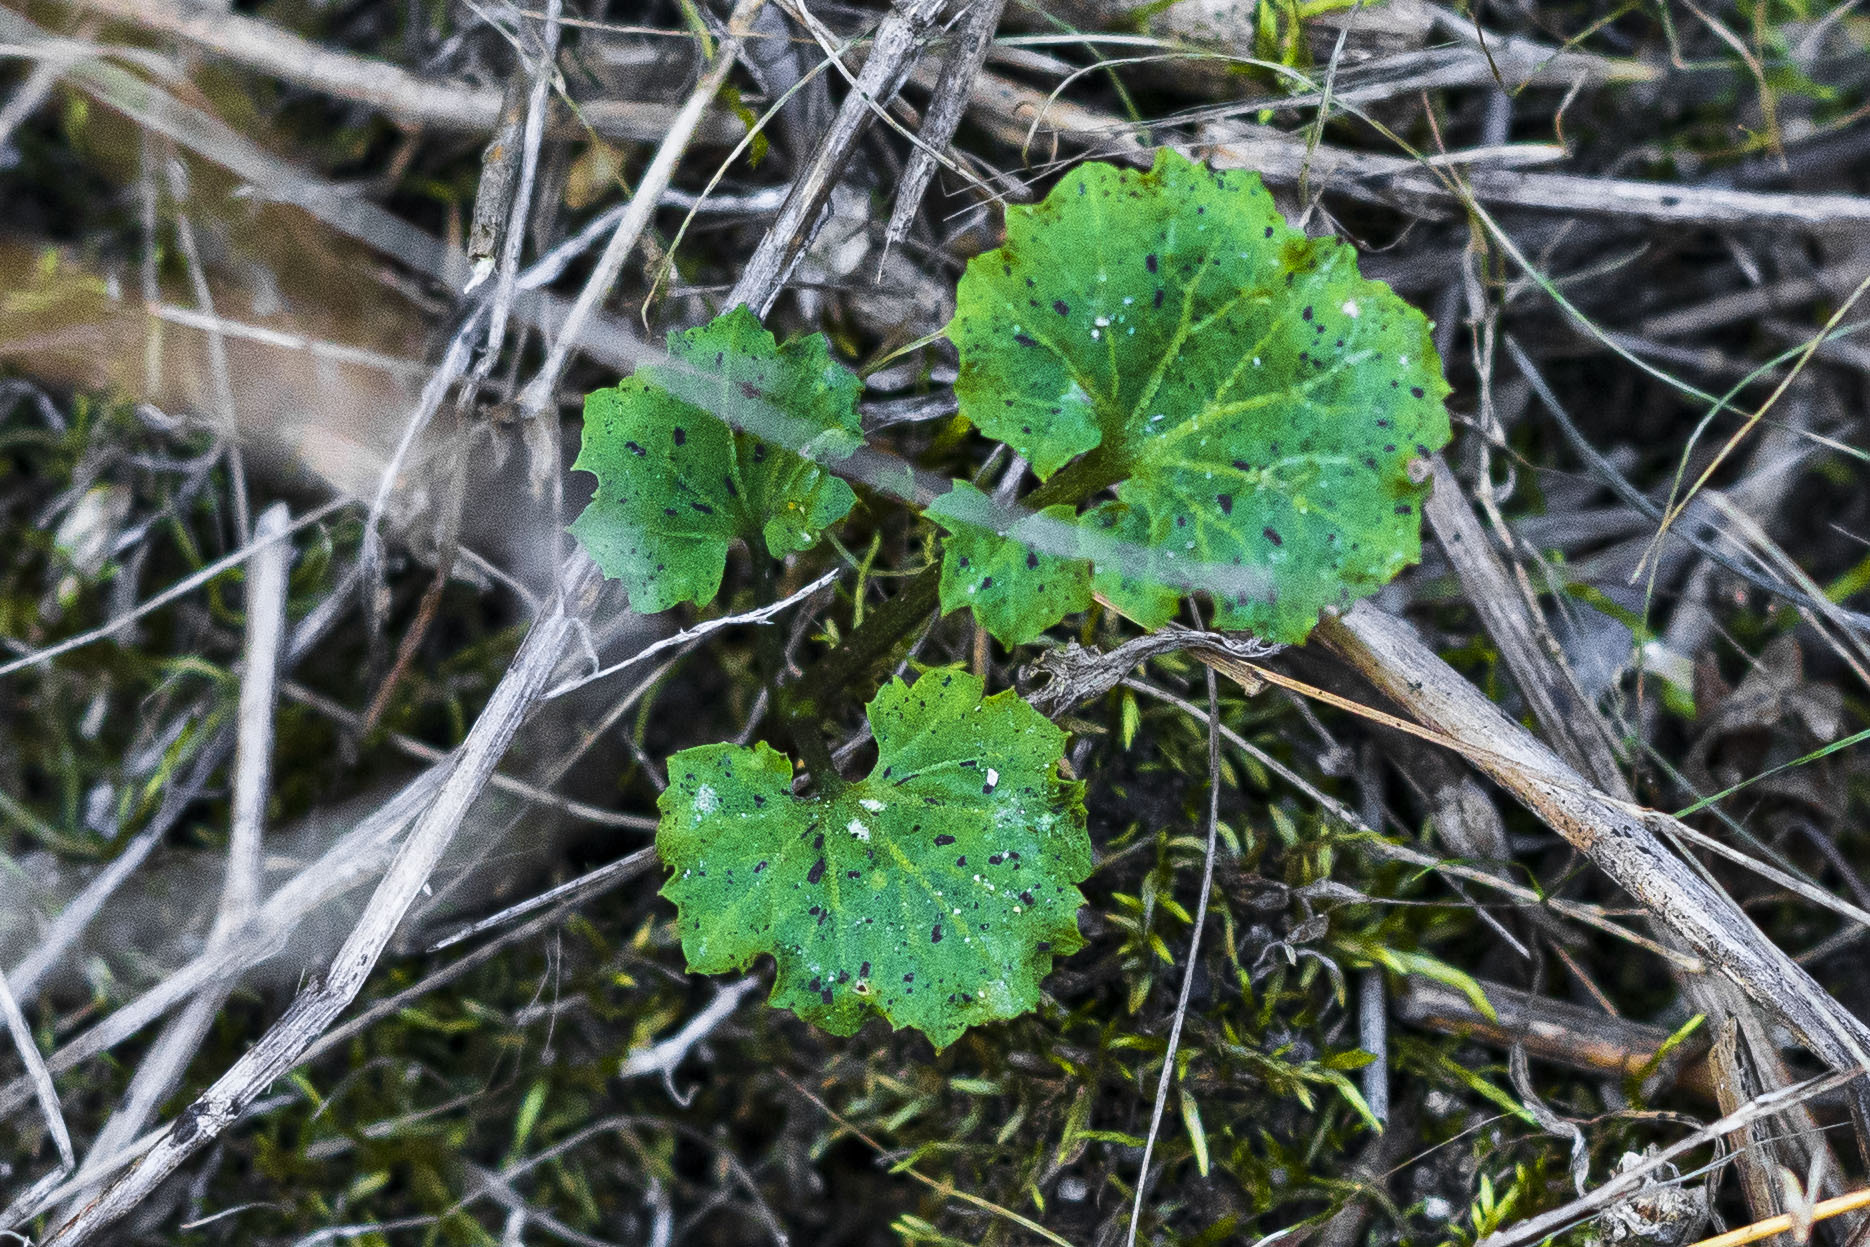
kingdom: Plantae
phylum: Tracheophyta
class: Magnoliopsida
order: Apiales
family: Apiaceae
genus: Sanicula
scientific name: Sanicula crassicaulis
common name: Western snakeroot
